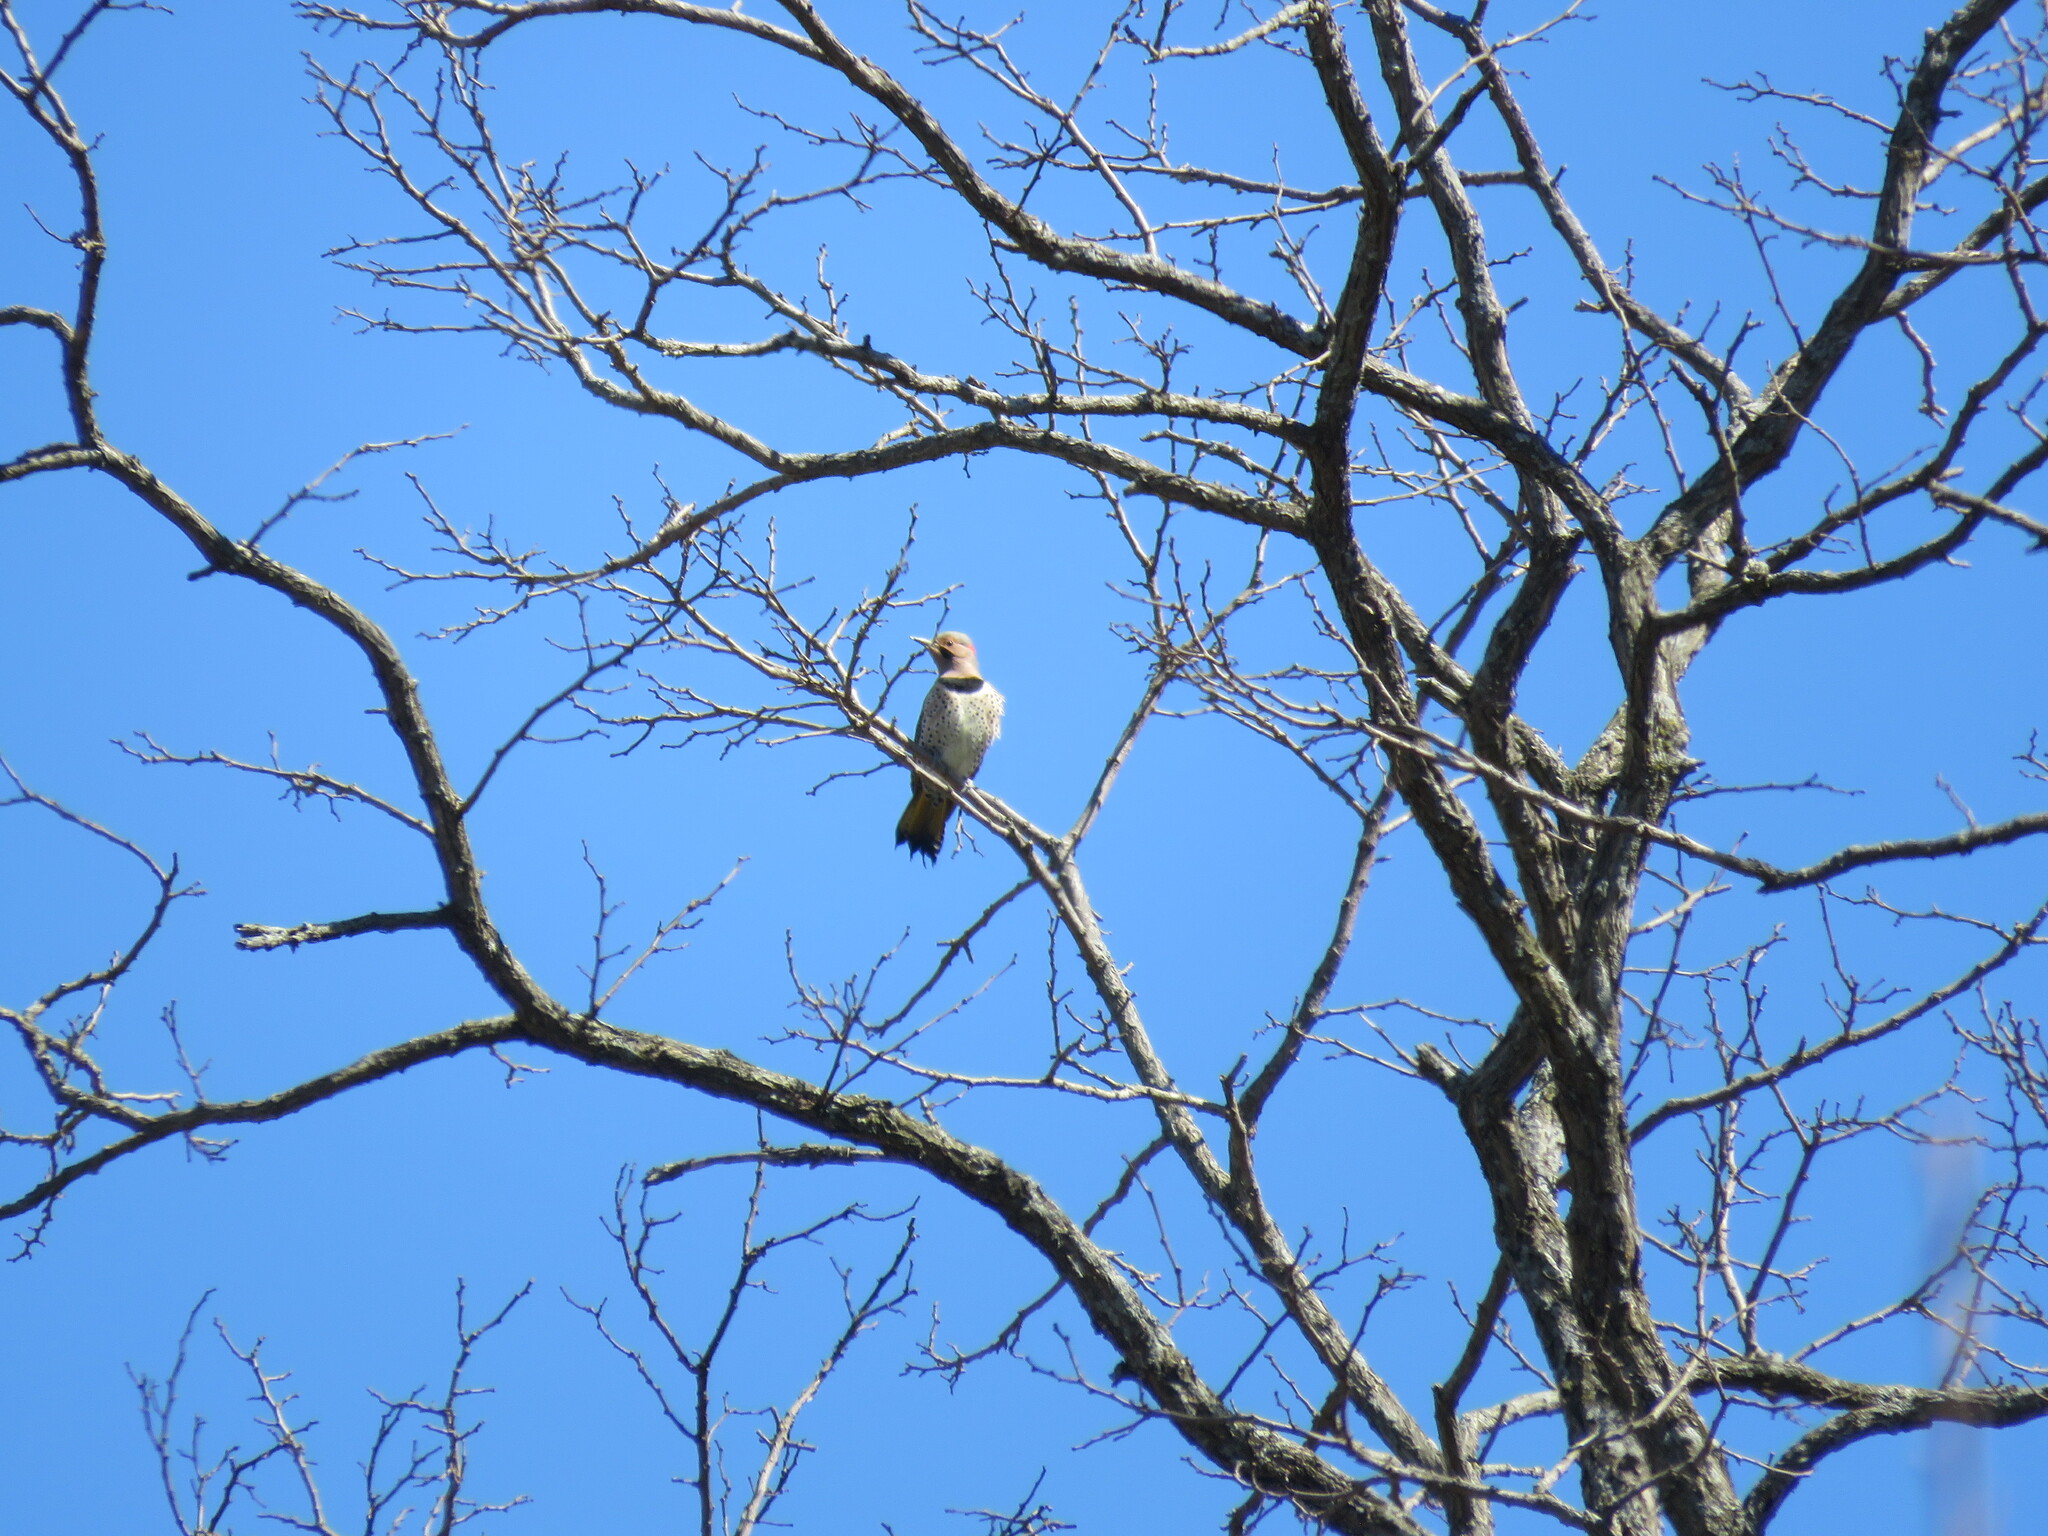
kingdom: Animalia
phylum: Chordata
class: Aves
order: Piciformes
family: Picidae
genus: Colaptes
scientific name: Colaptes auratus
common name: Northern flicker
